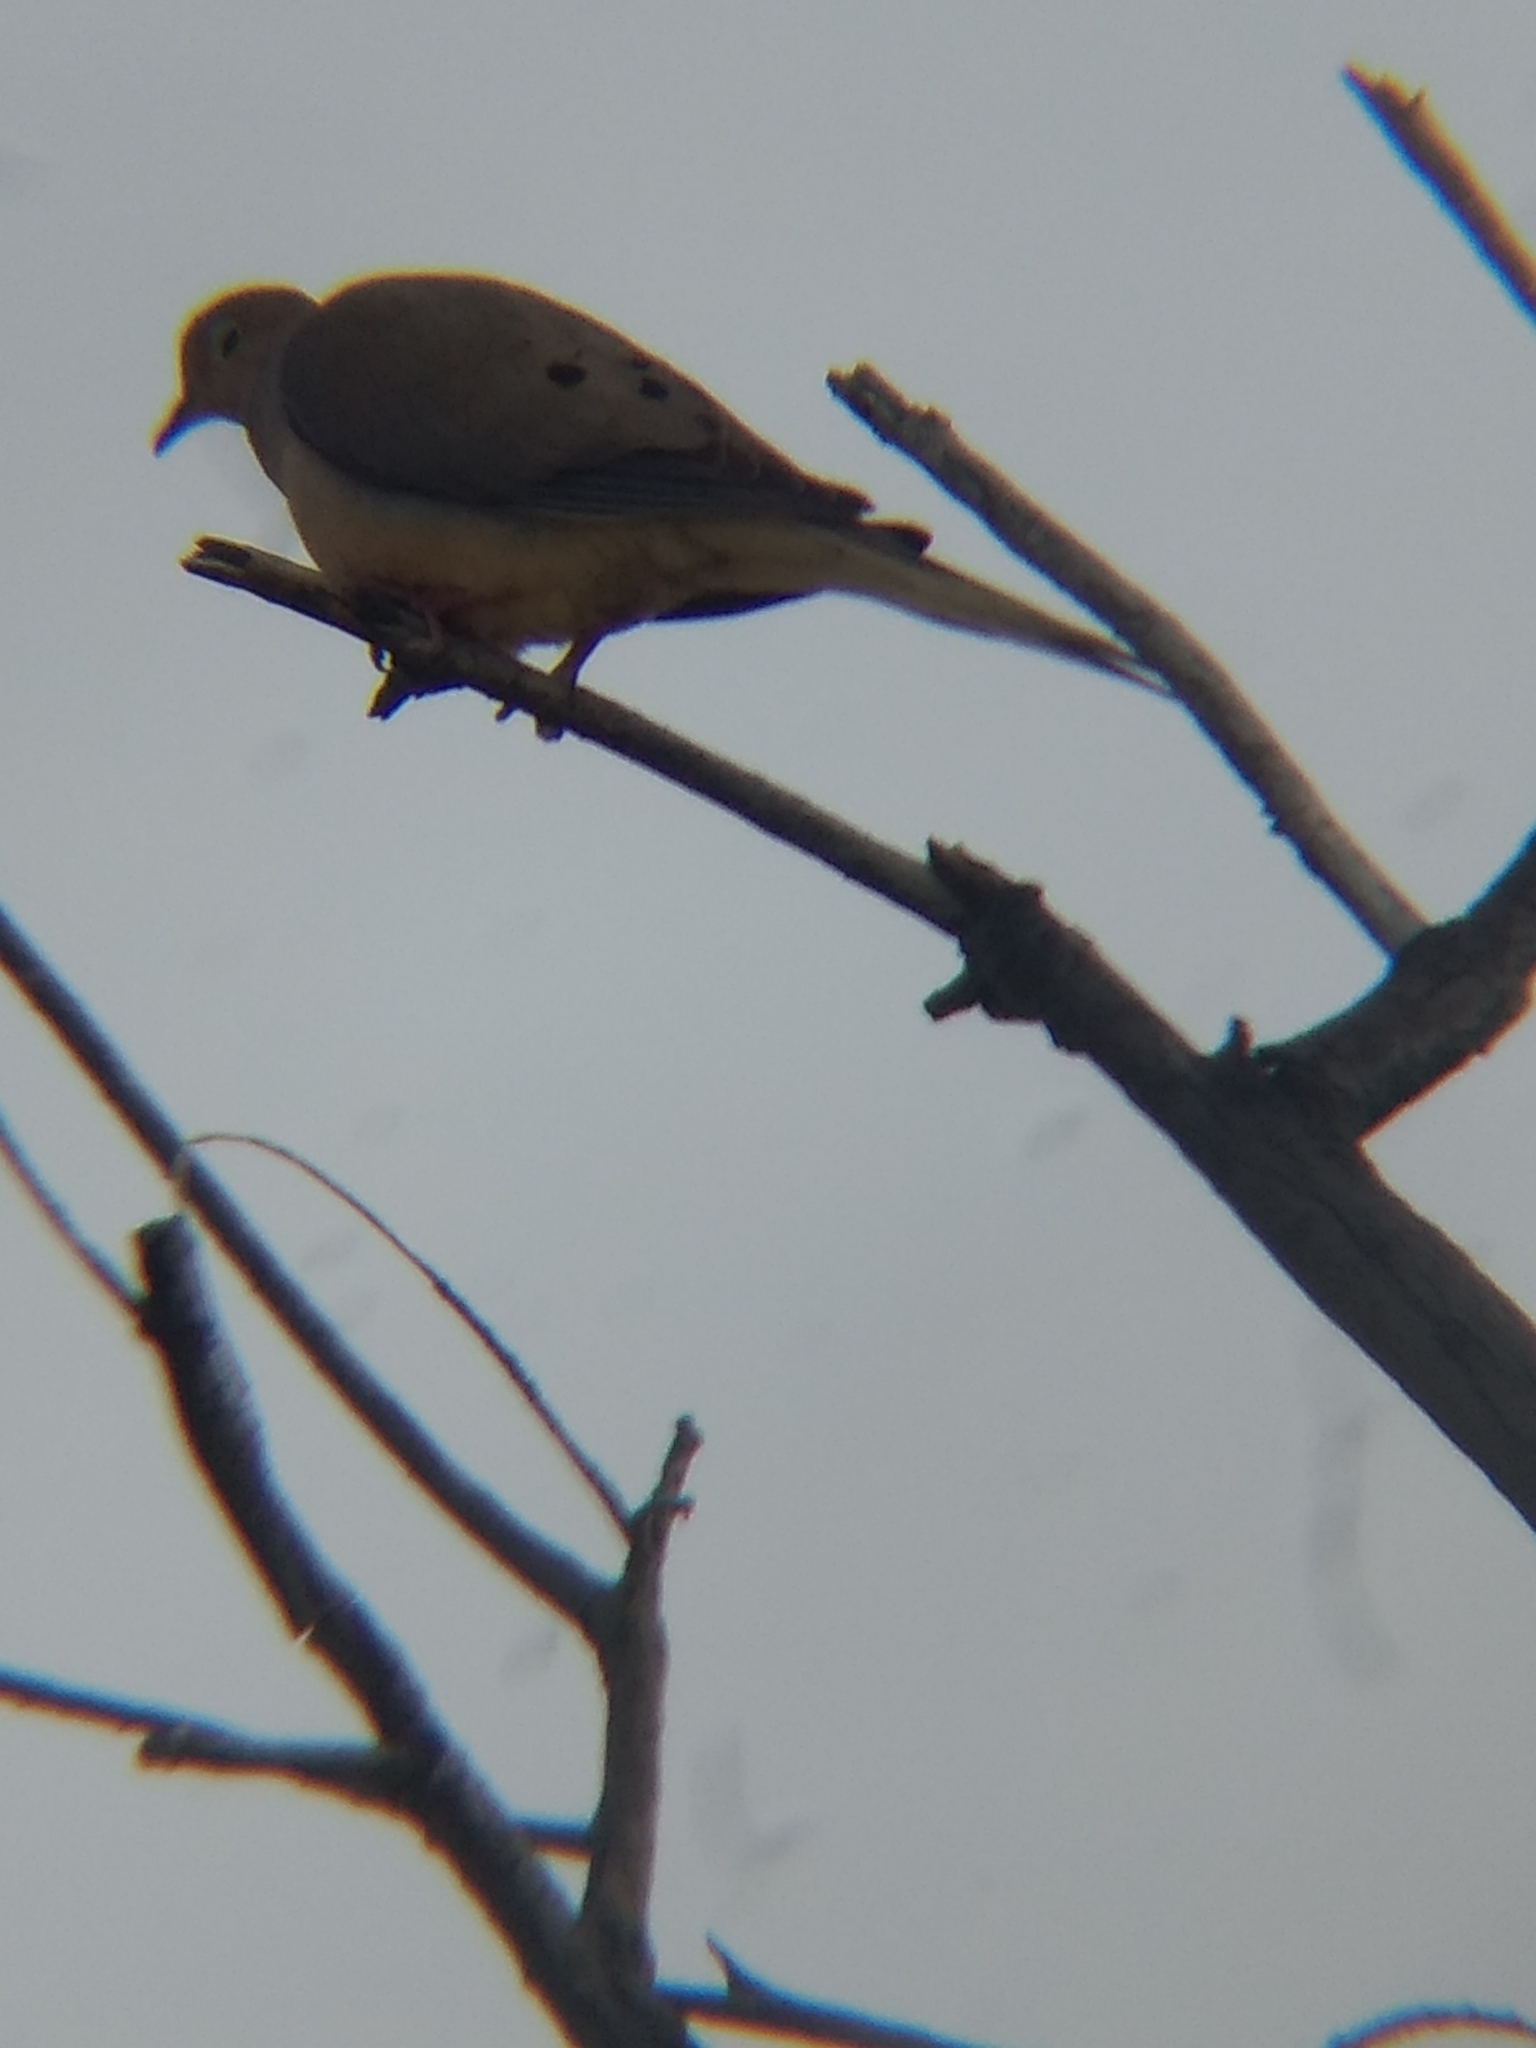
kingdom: Animalia
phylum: Chordata
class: Aves
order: Columbiformes
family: Columbidae
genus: Zenaida
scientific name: Zenaida macroura
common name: Mourning dove
